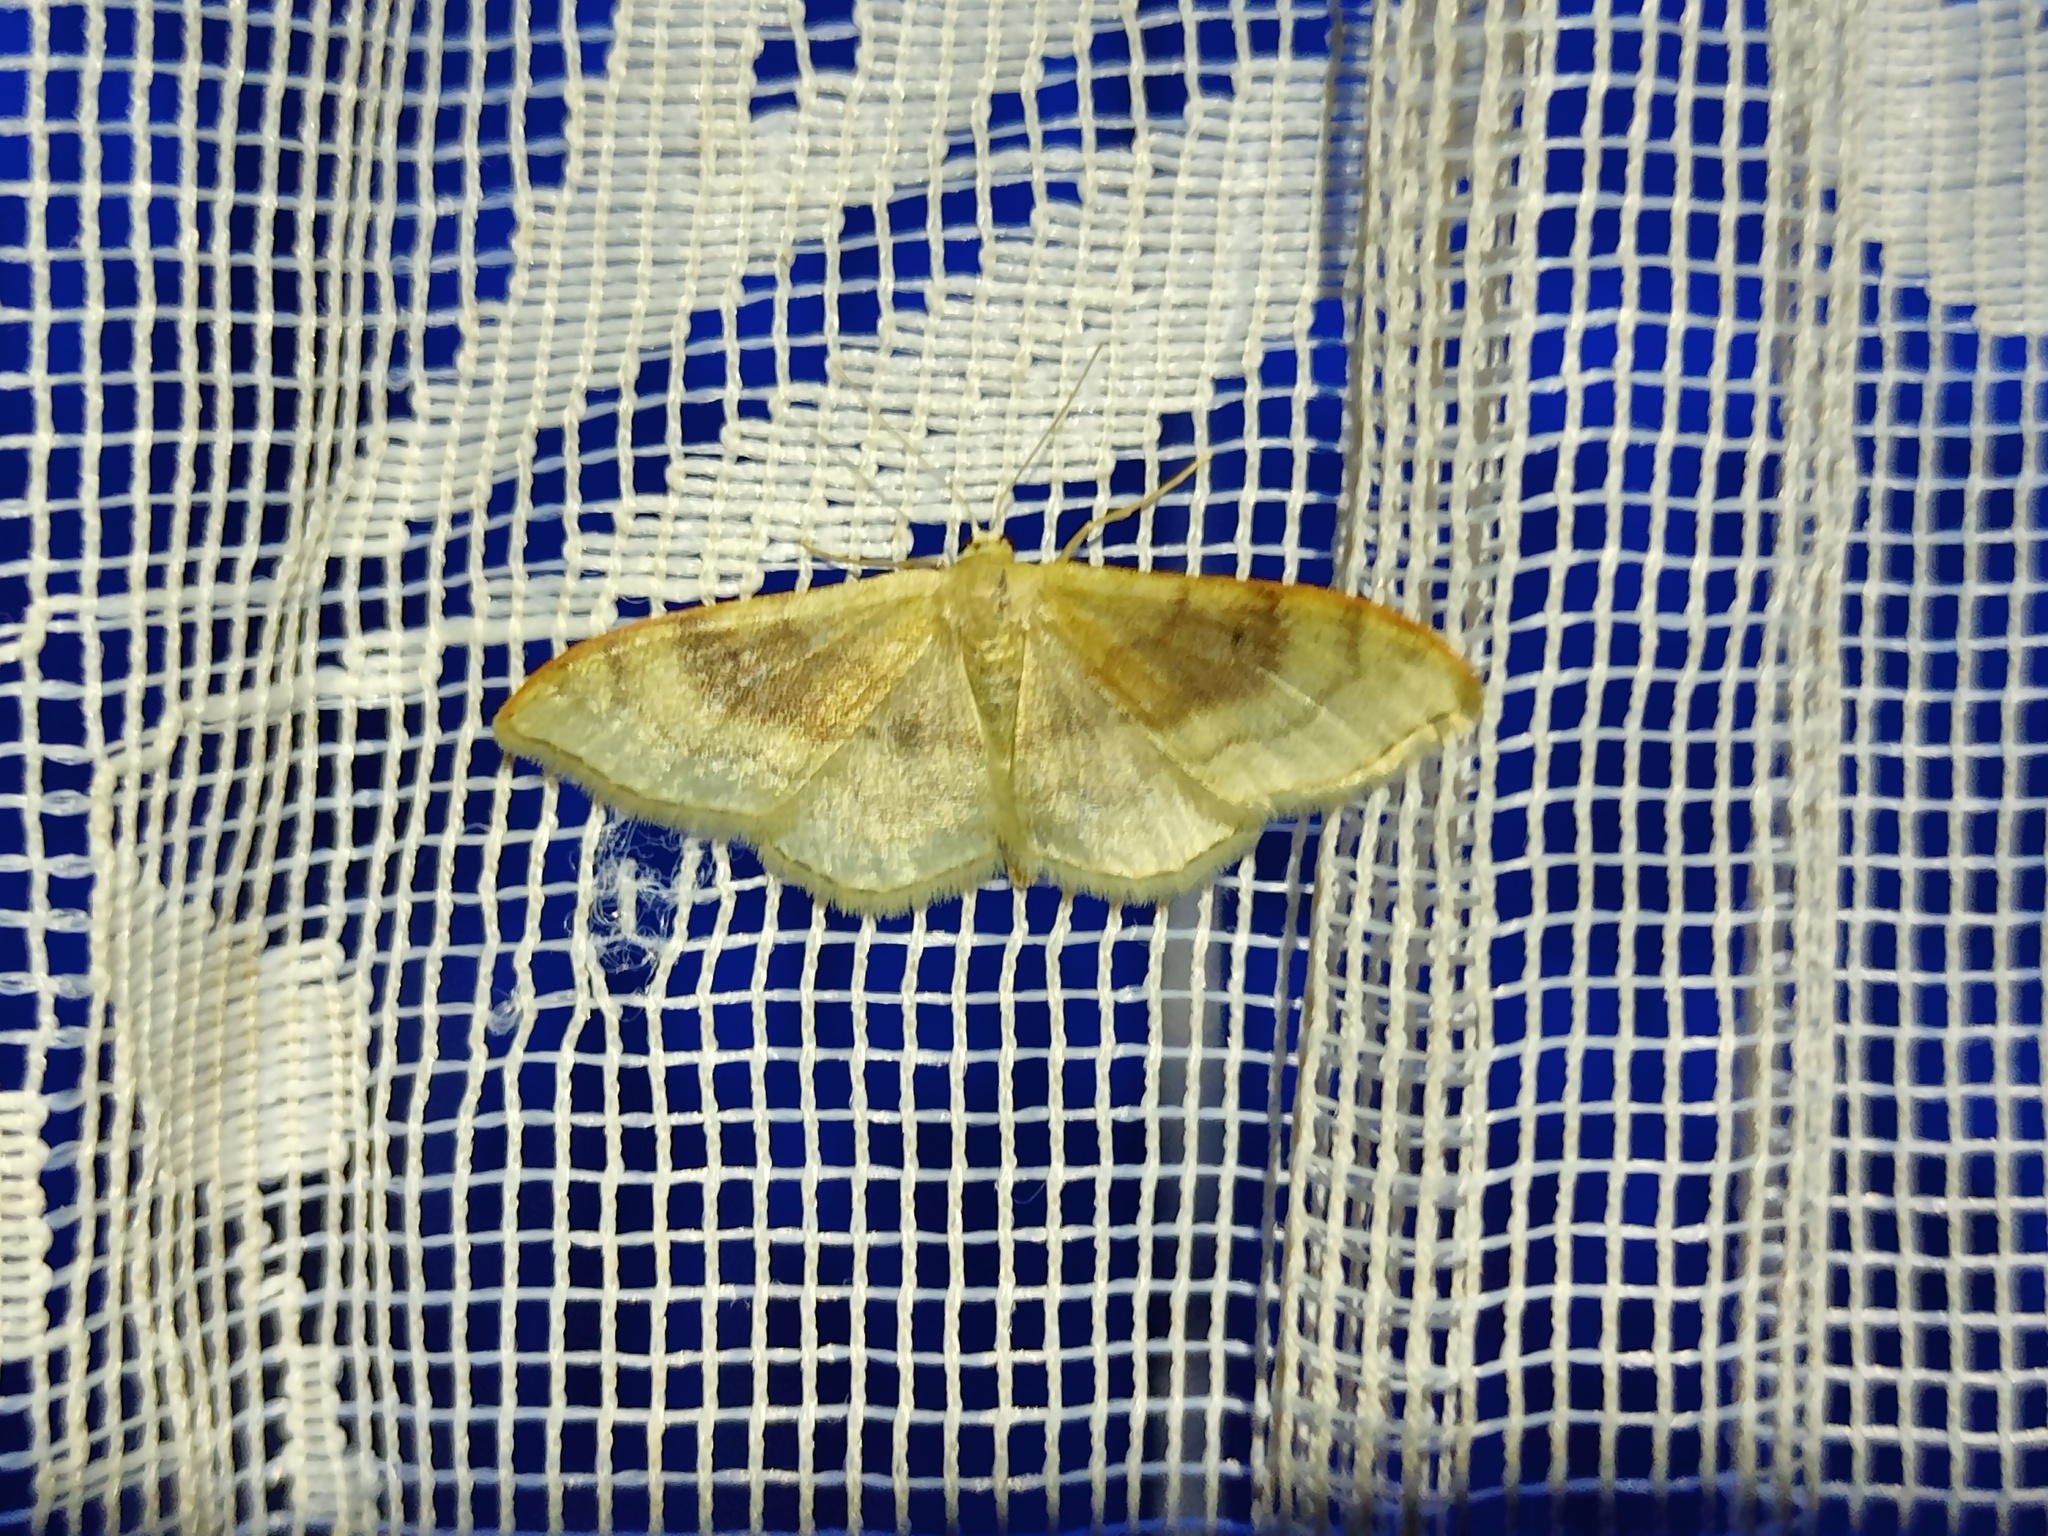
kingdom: Animalia
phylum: Arthropoda
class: Insecta
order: Lepidoptera
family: Geometridae
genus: Idaea
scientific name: Idaea degeneraria
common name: Portland ribbon wave
